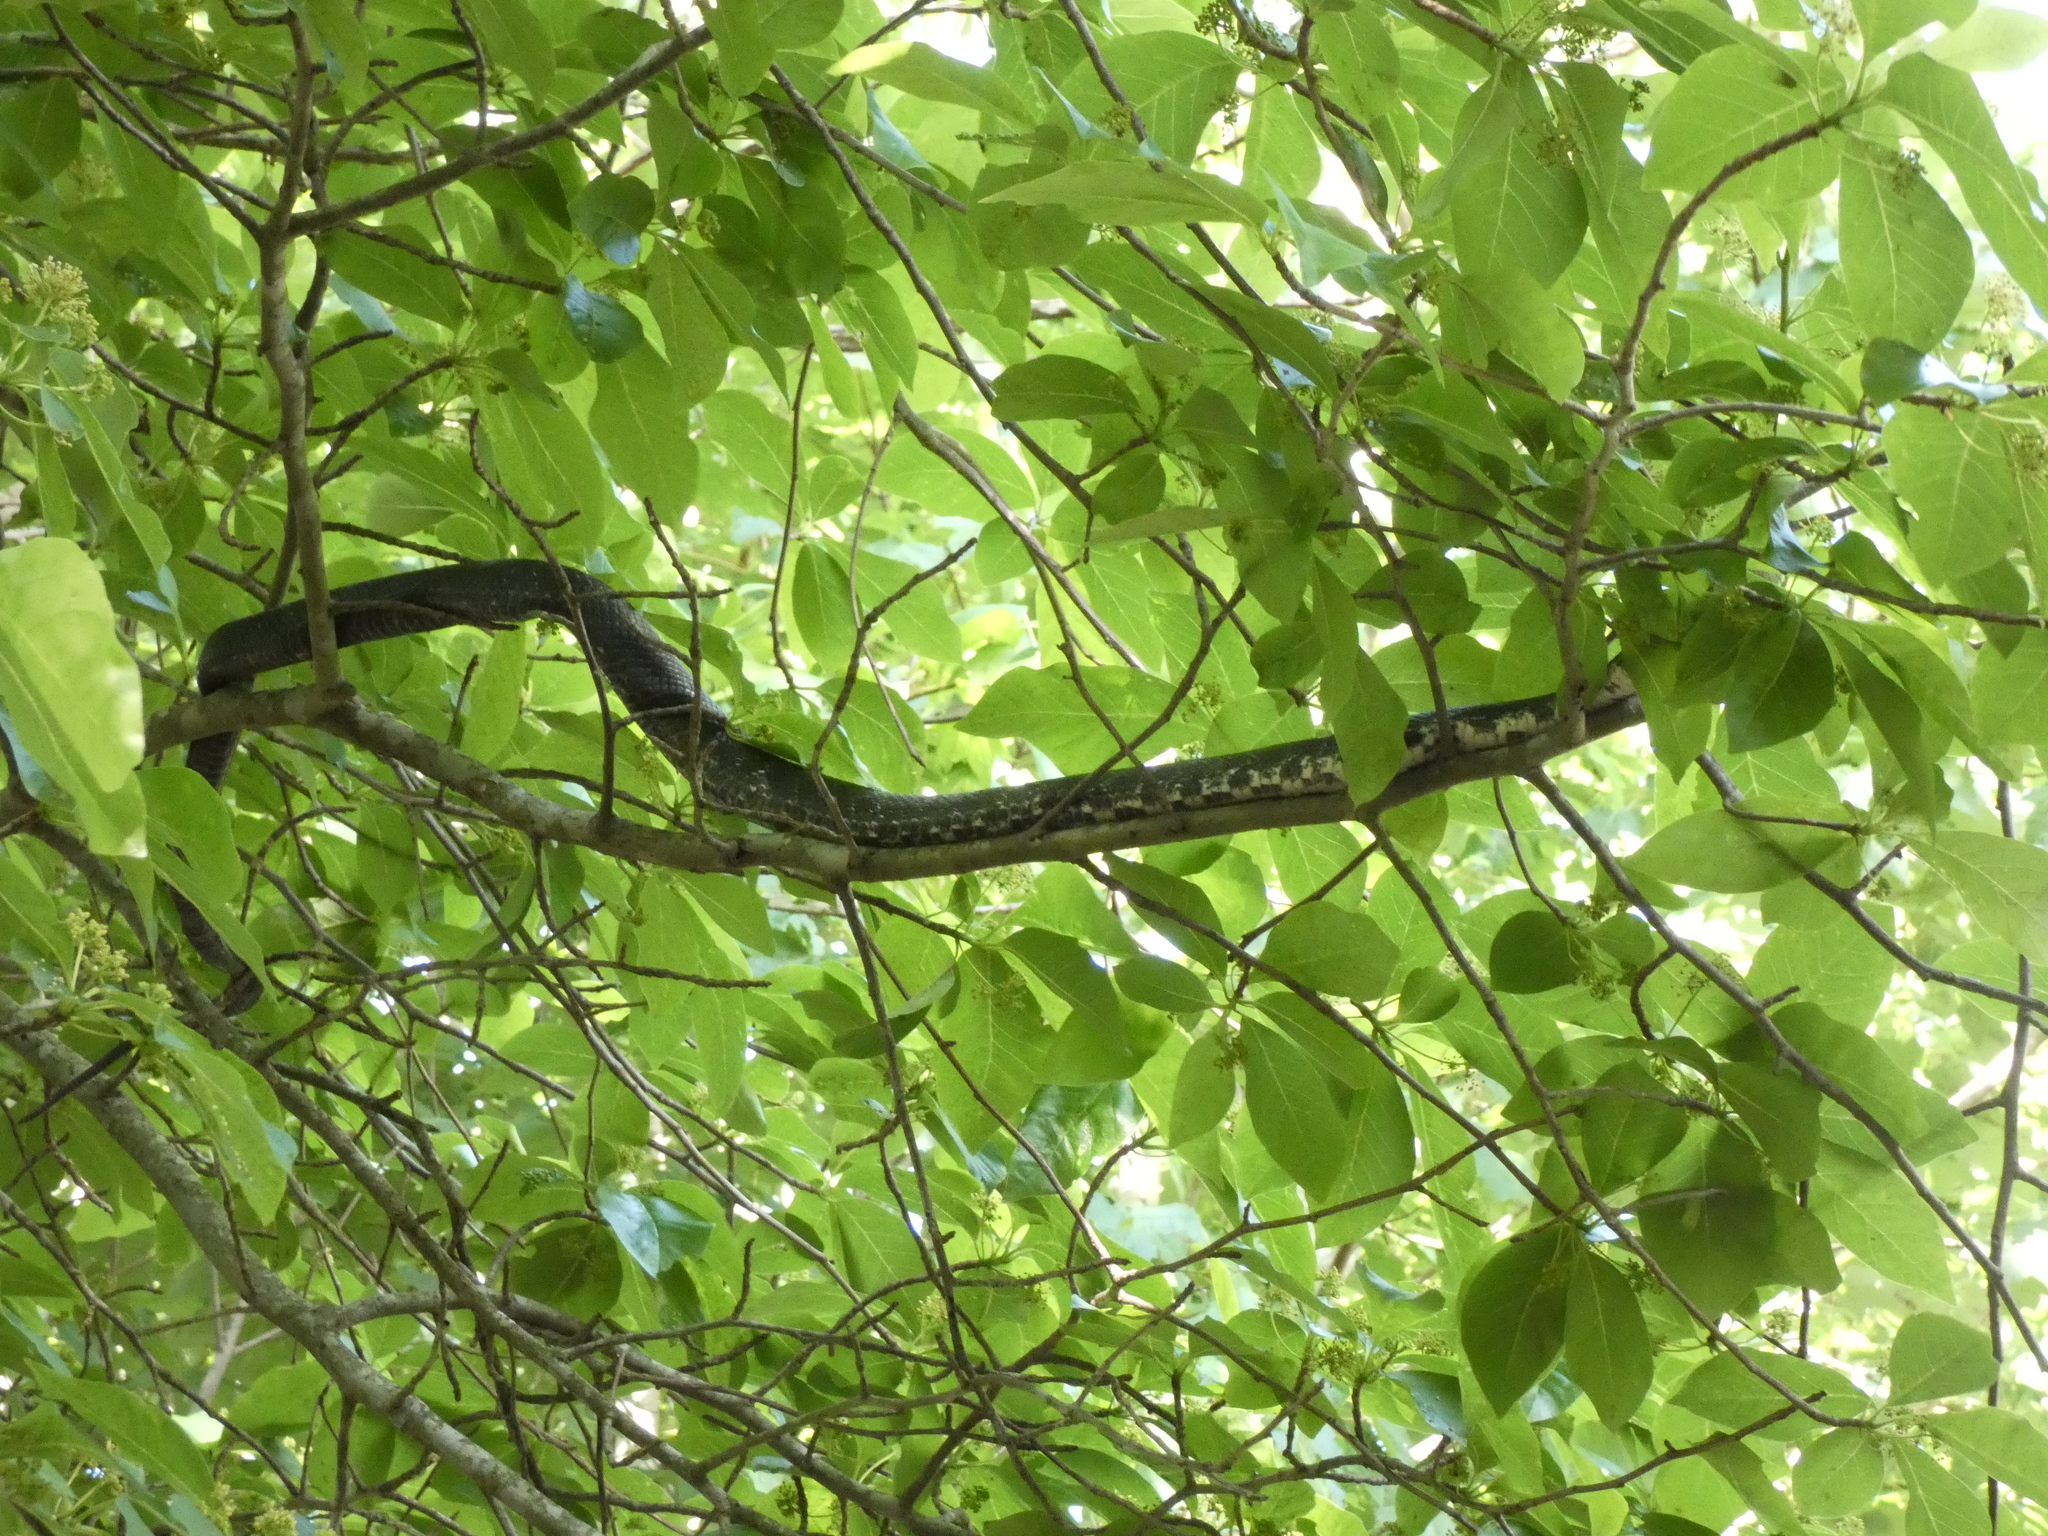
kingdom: Animalia
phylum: Chordata
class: Squamata
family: Colubridae
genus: Pantherophis
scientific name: Pantherophis alleghaniensis
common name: Eastern rat snake
